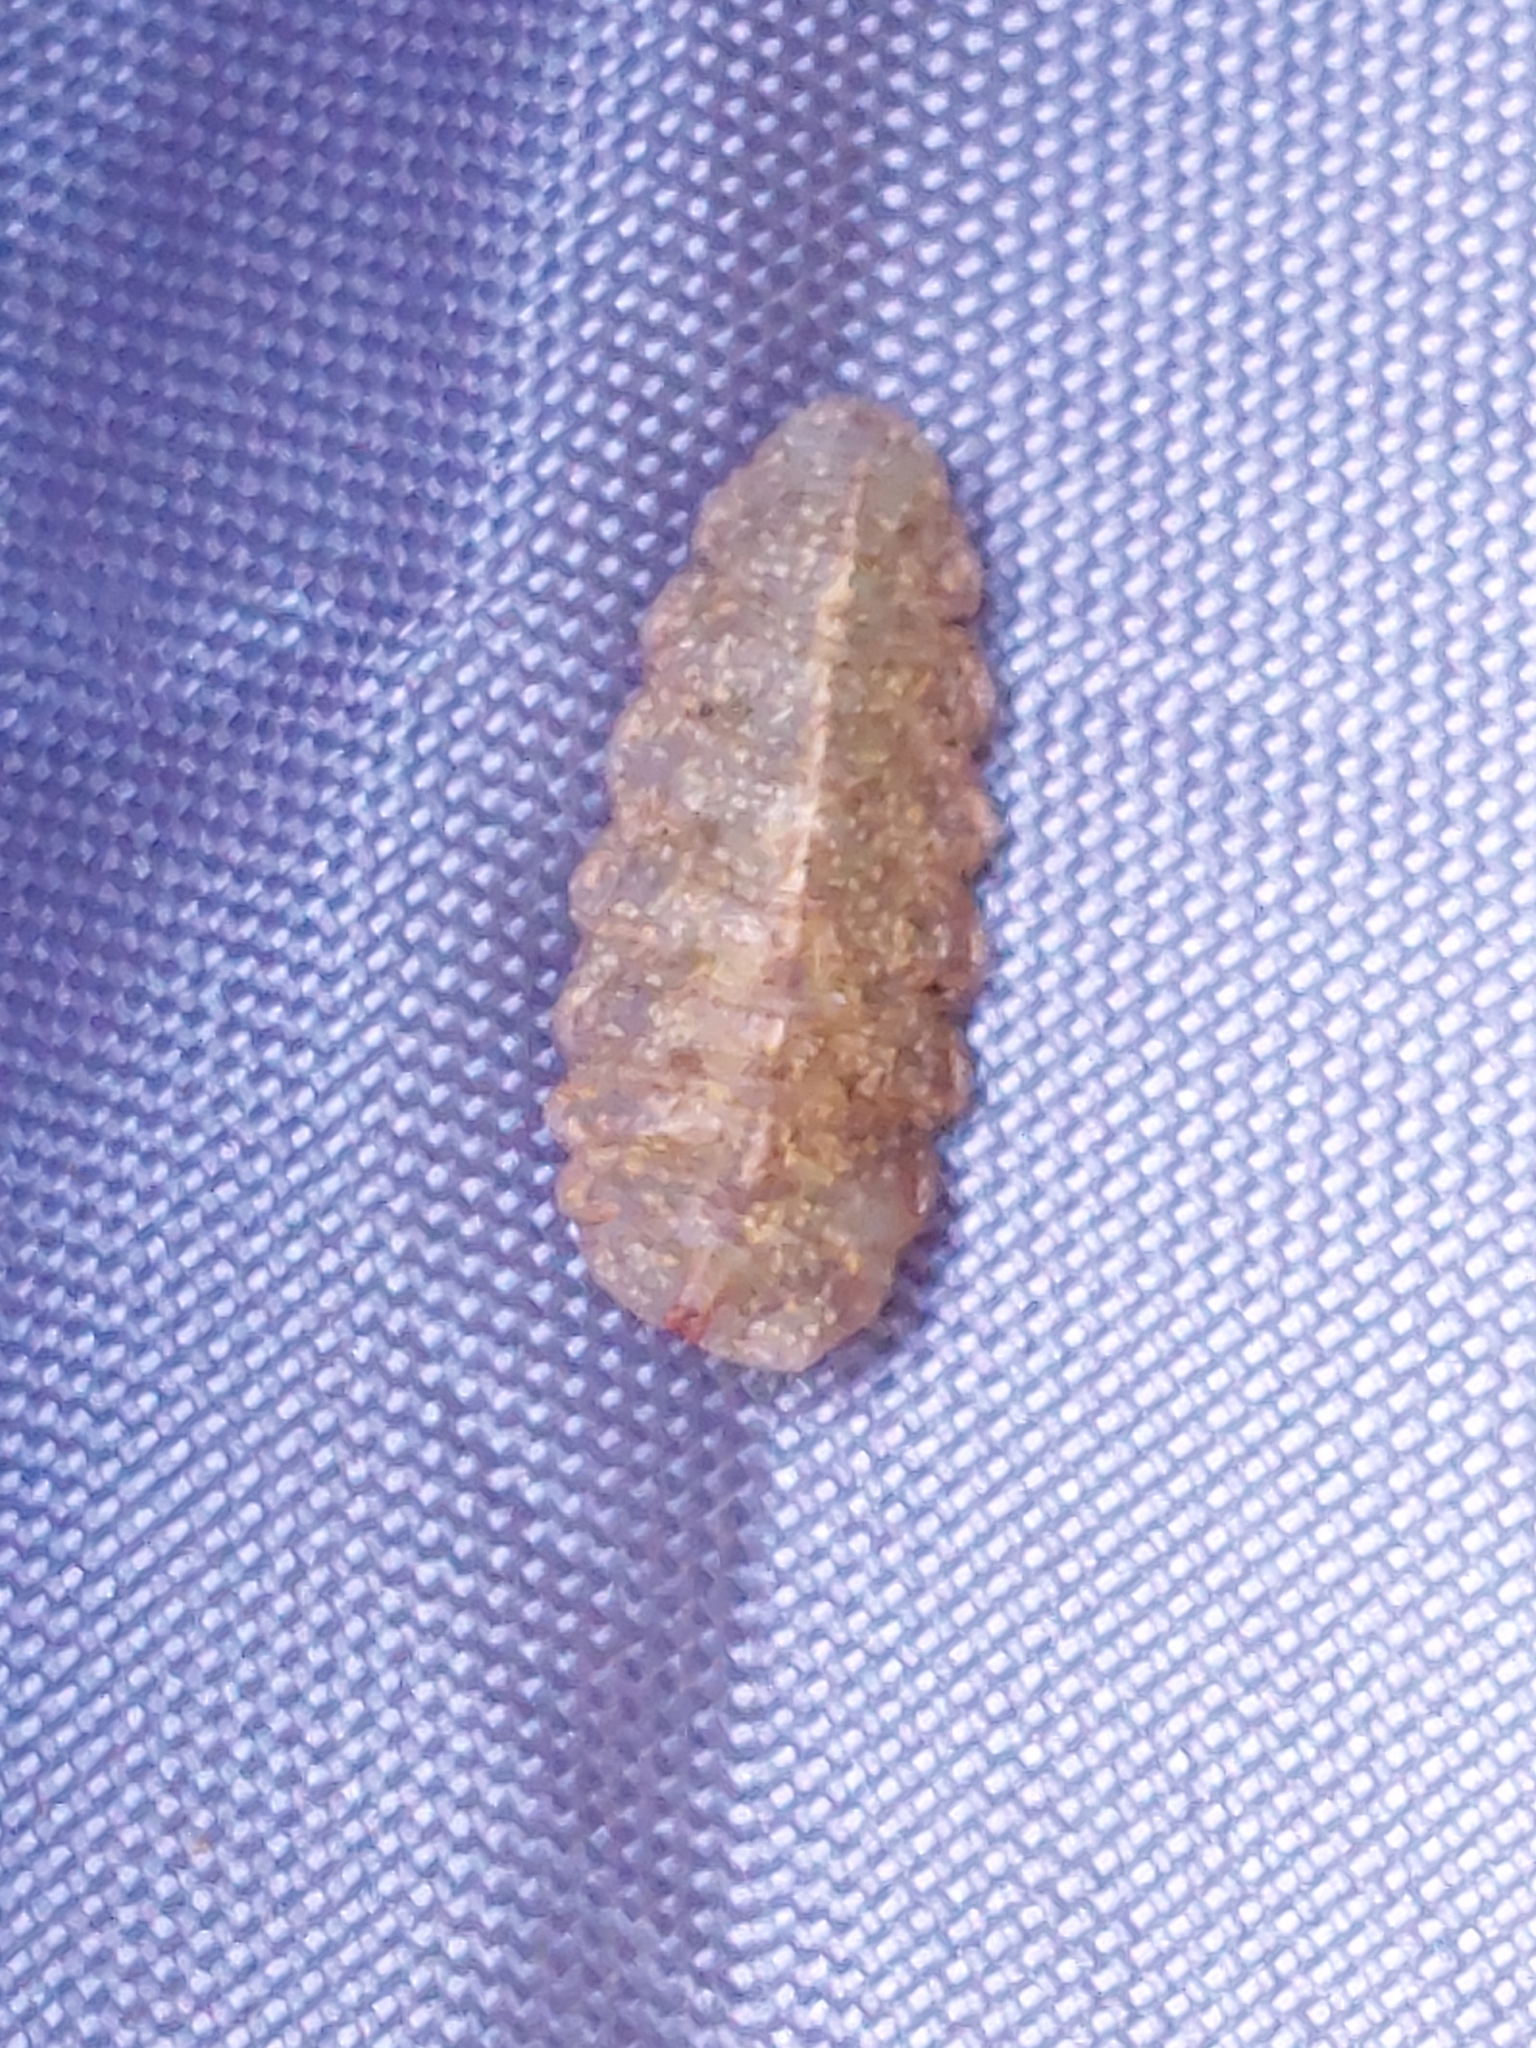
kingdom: Animalia
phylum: Arthropoda
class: Insecta
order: Diptera
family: Syrphidae
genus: Epistrophe
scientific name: Epistrophe eligans
